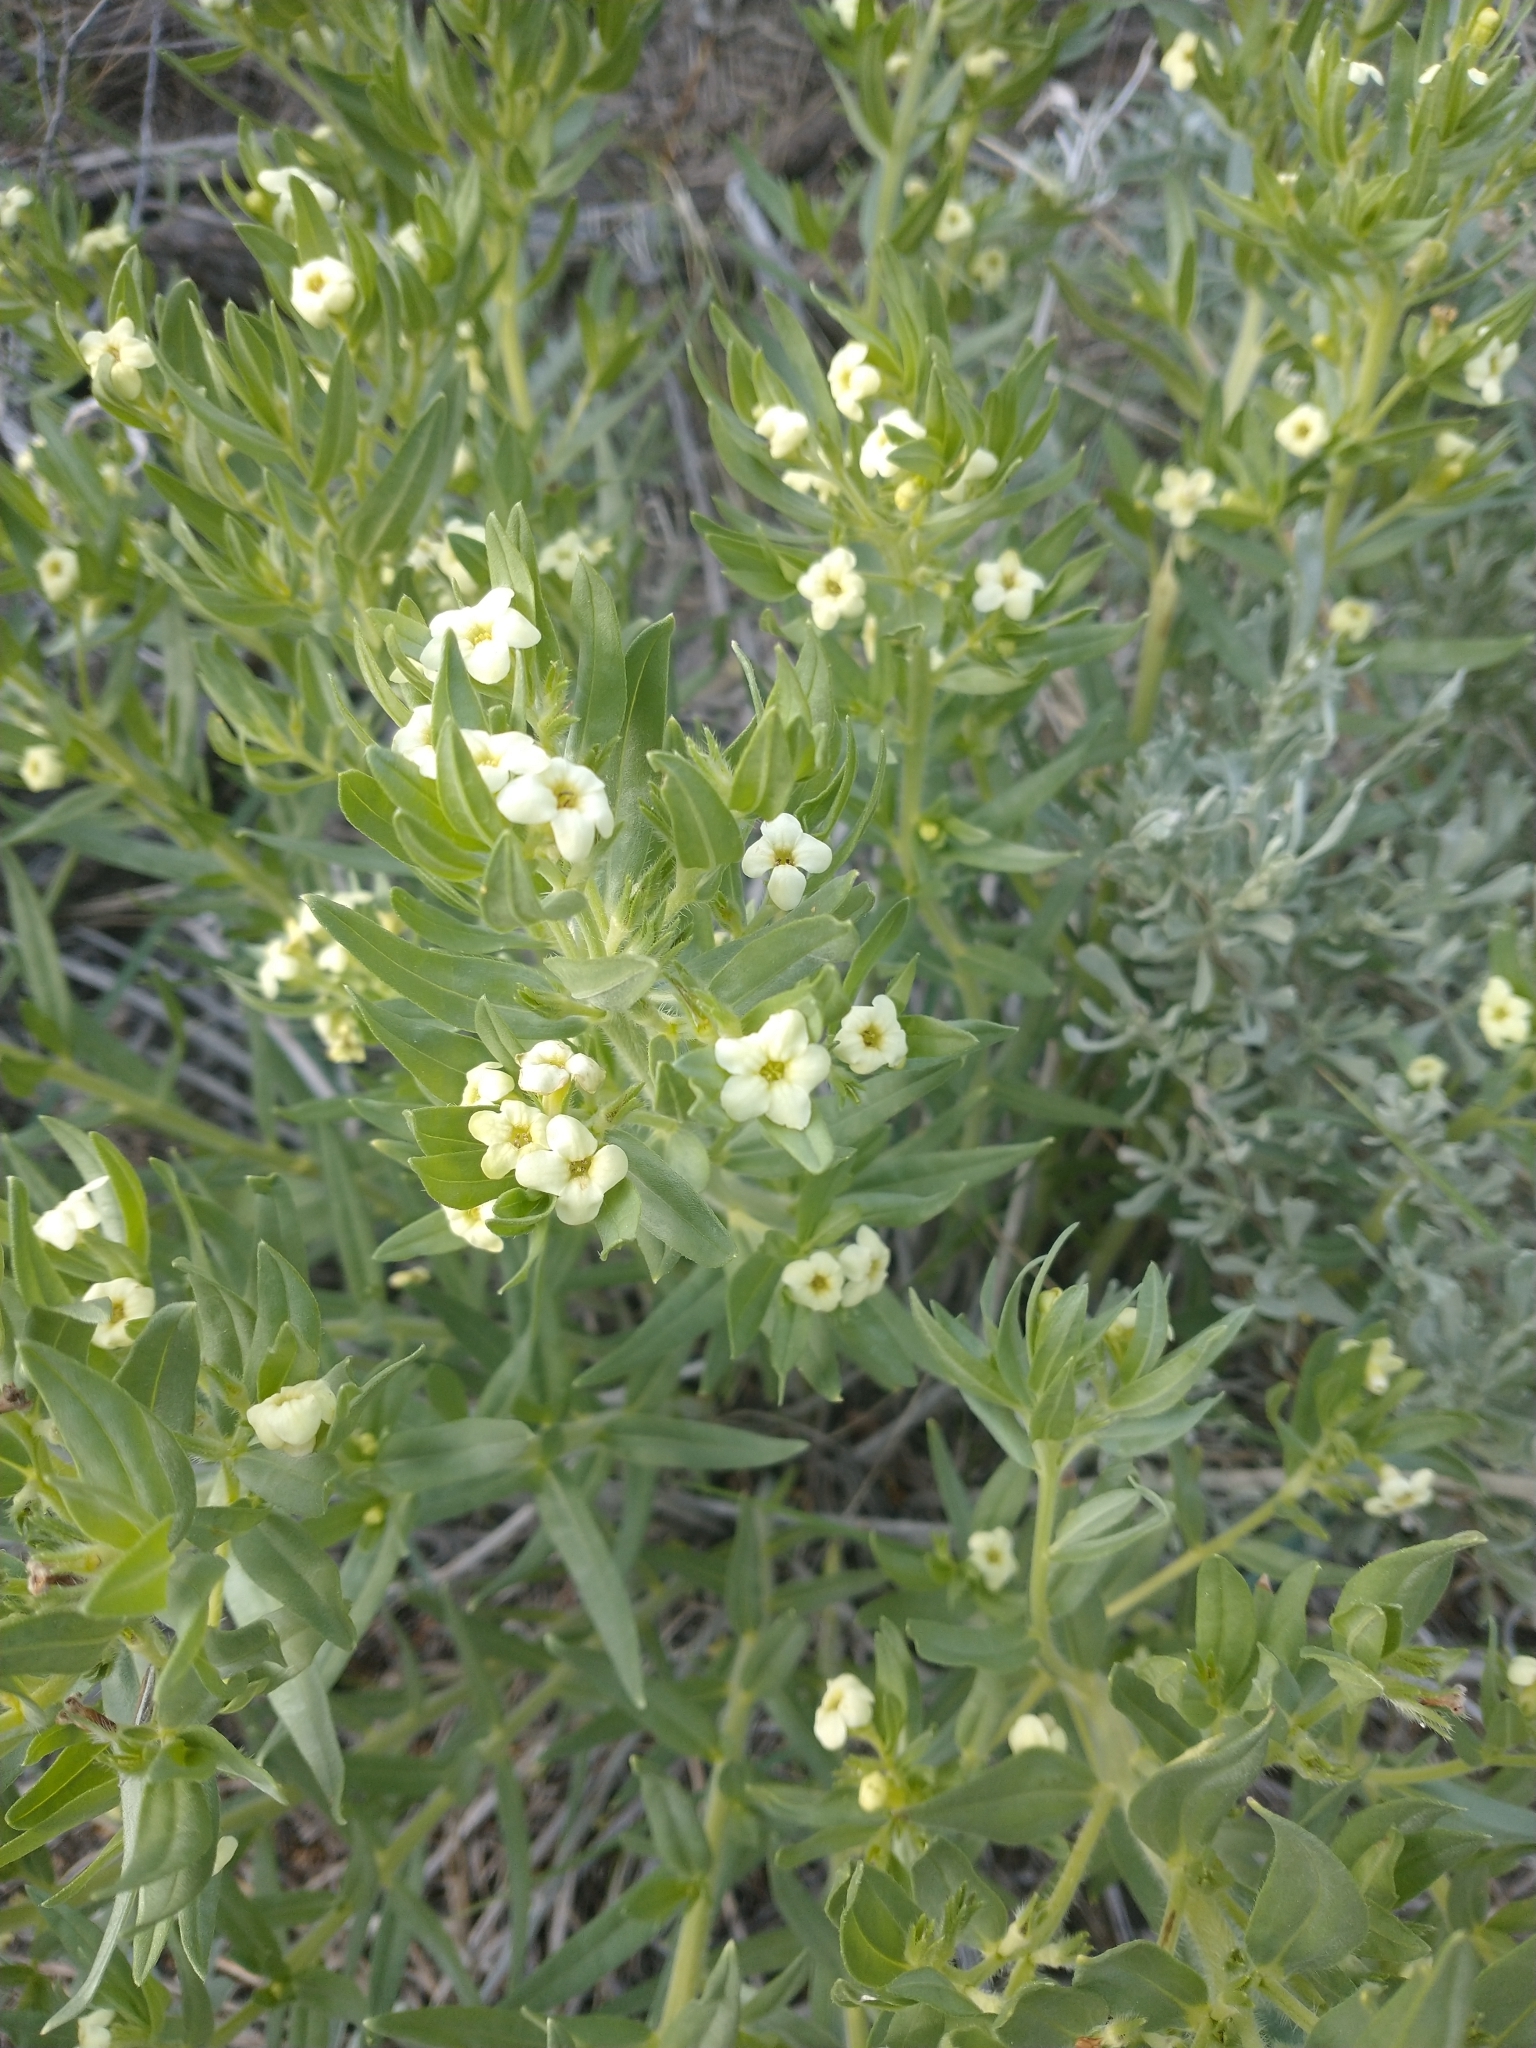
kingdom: Plantae
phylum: Tracheophyta
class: Magnoliopsida
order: Boraginales
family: Boraginaceae
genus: Lithospermum
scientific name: Lithospermum ruderale
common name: Western gromwell
